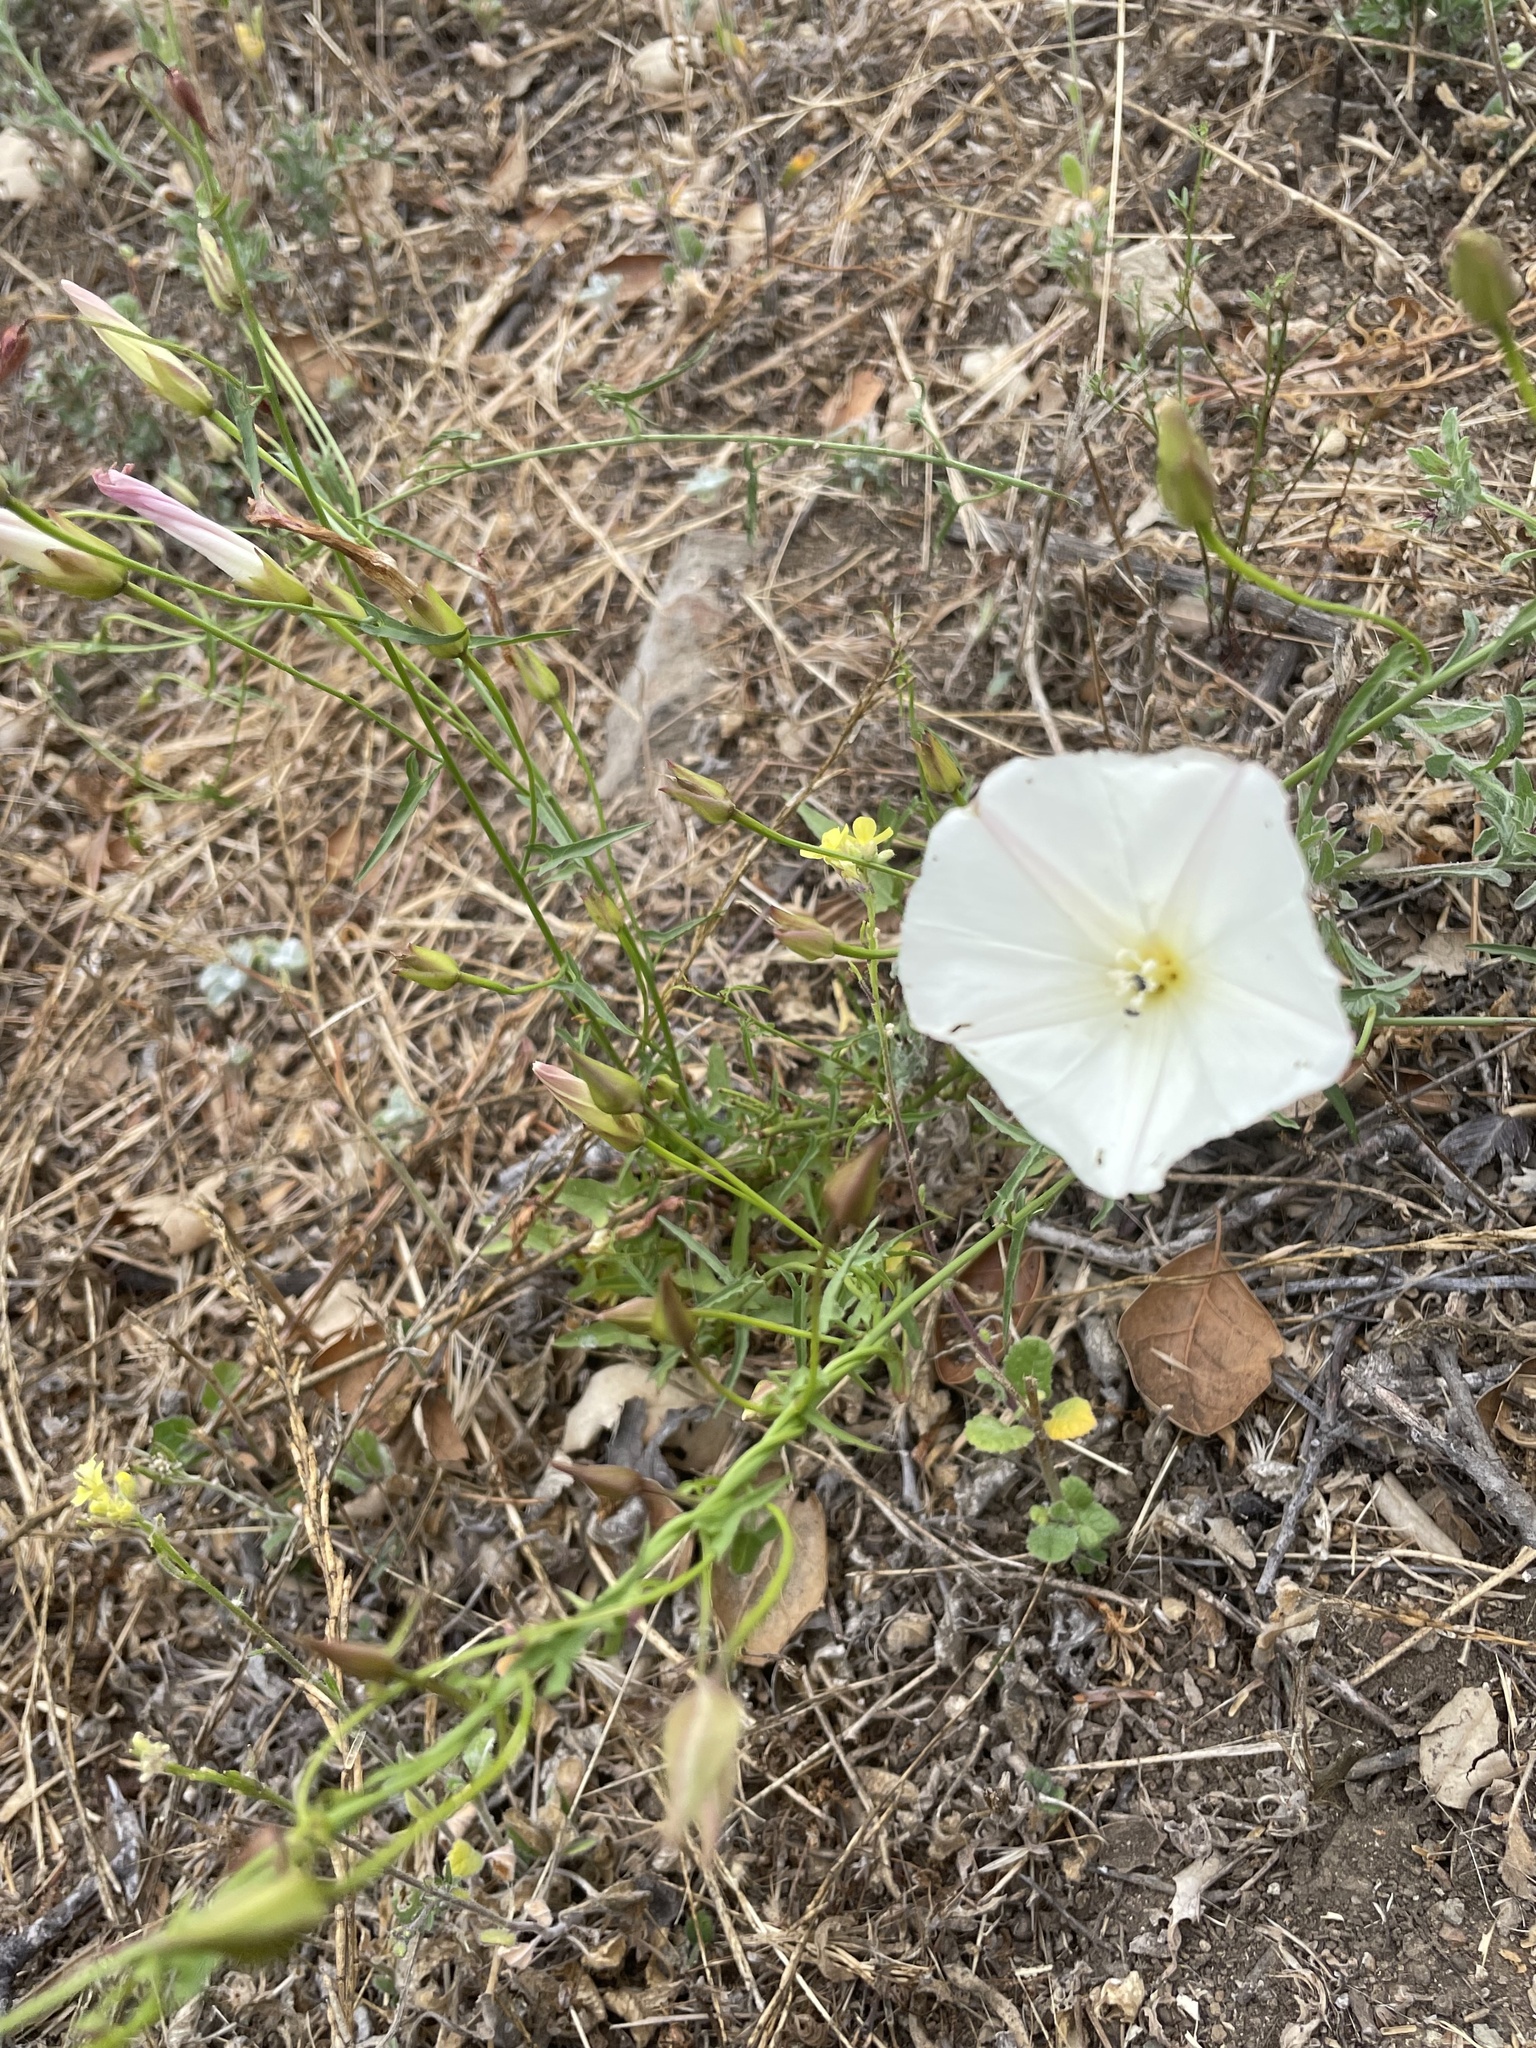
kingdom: Plantae
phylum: Tracheophyta
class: Magnoliopsida
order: Solanales
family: Convolvulaceae
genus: Calystegia
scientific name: Calystegia macrostegia
